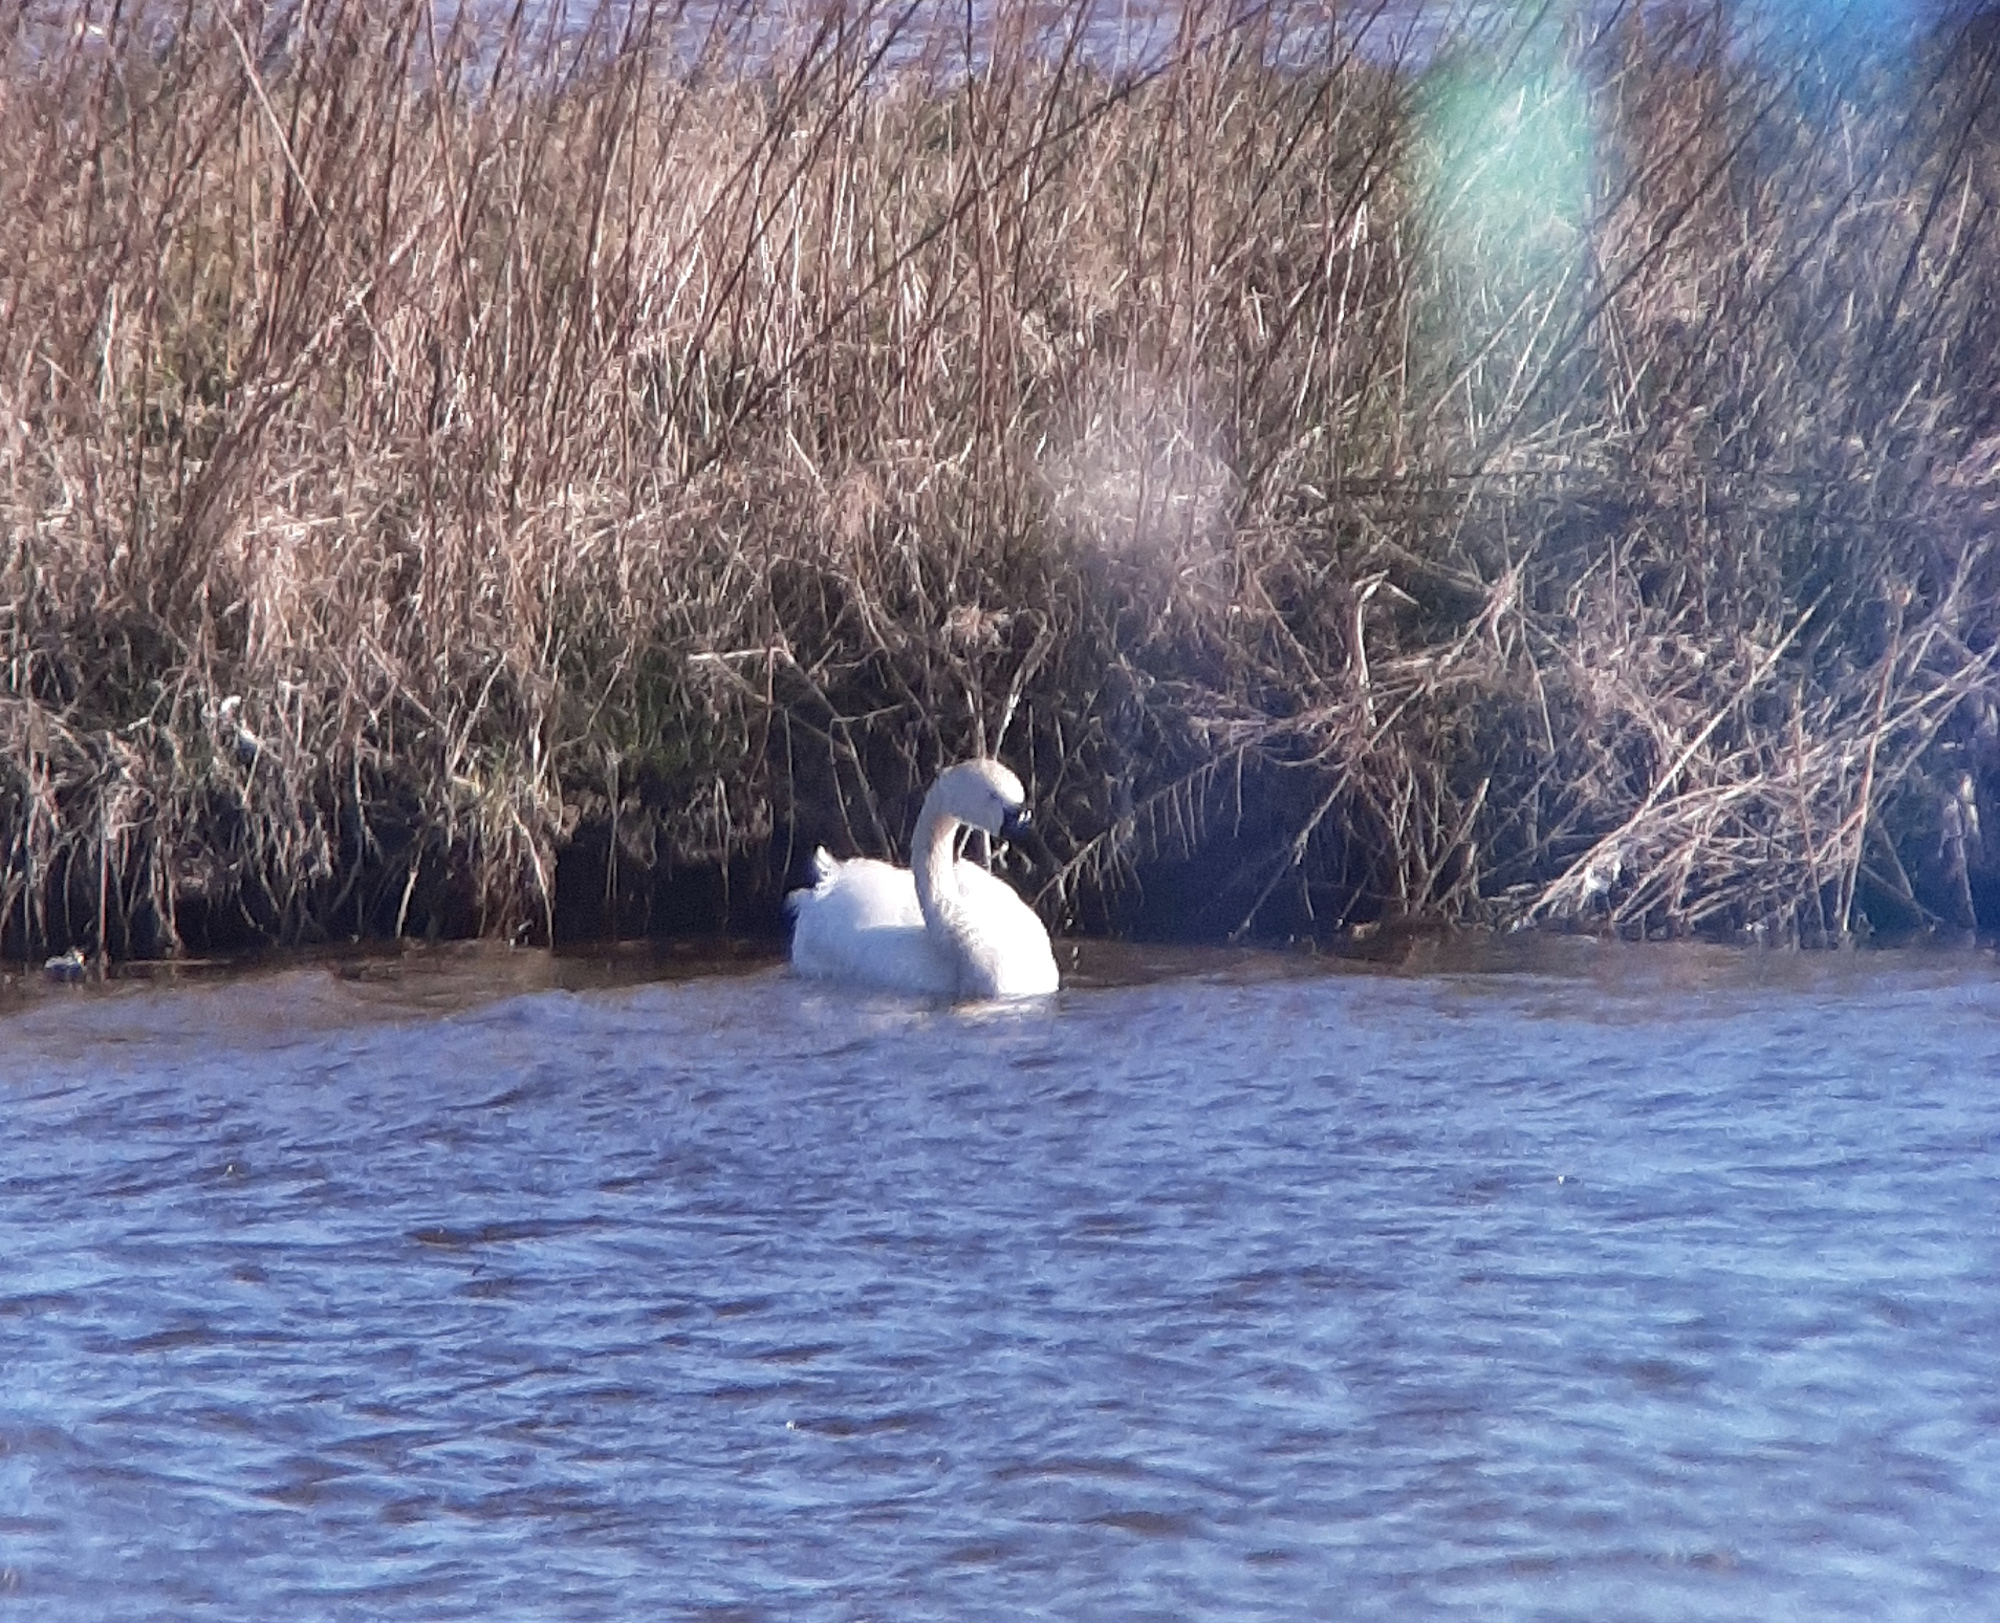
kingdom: Animalia
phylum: Chordata
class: Aves
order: Anseriformes
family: Anatidae
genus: Cygnus
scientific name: Cygnus columbianus
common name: Tundra swan
